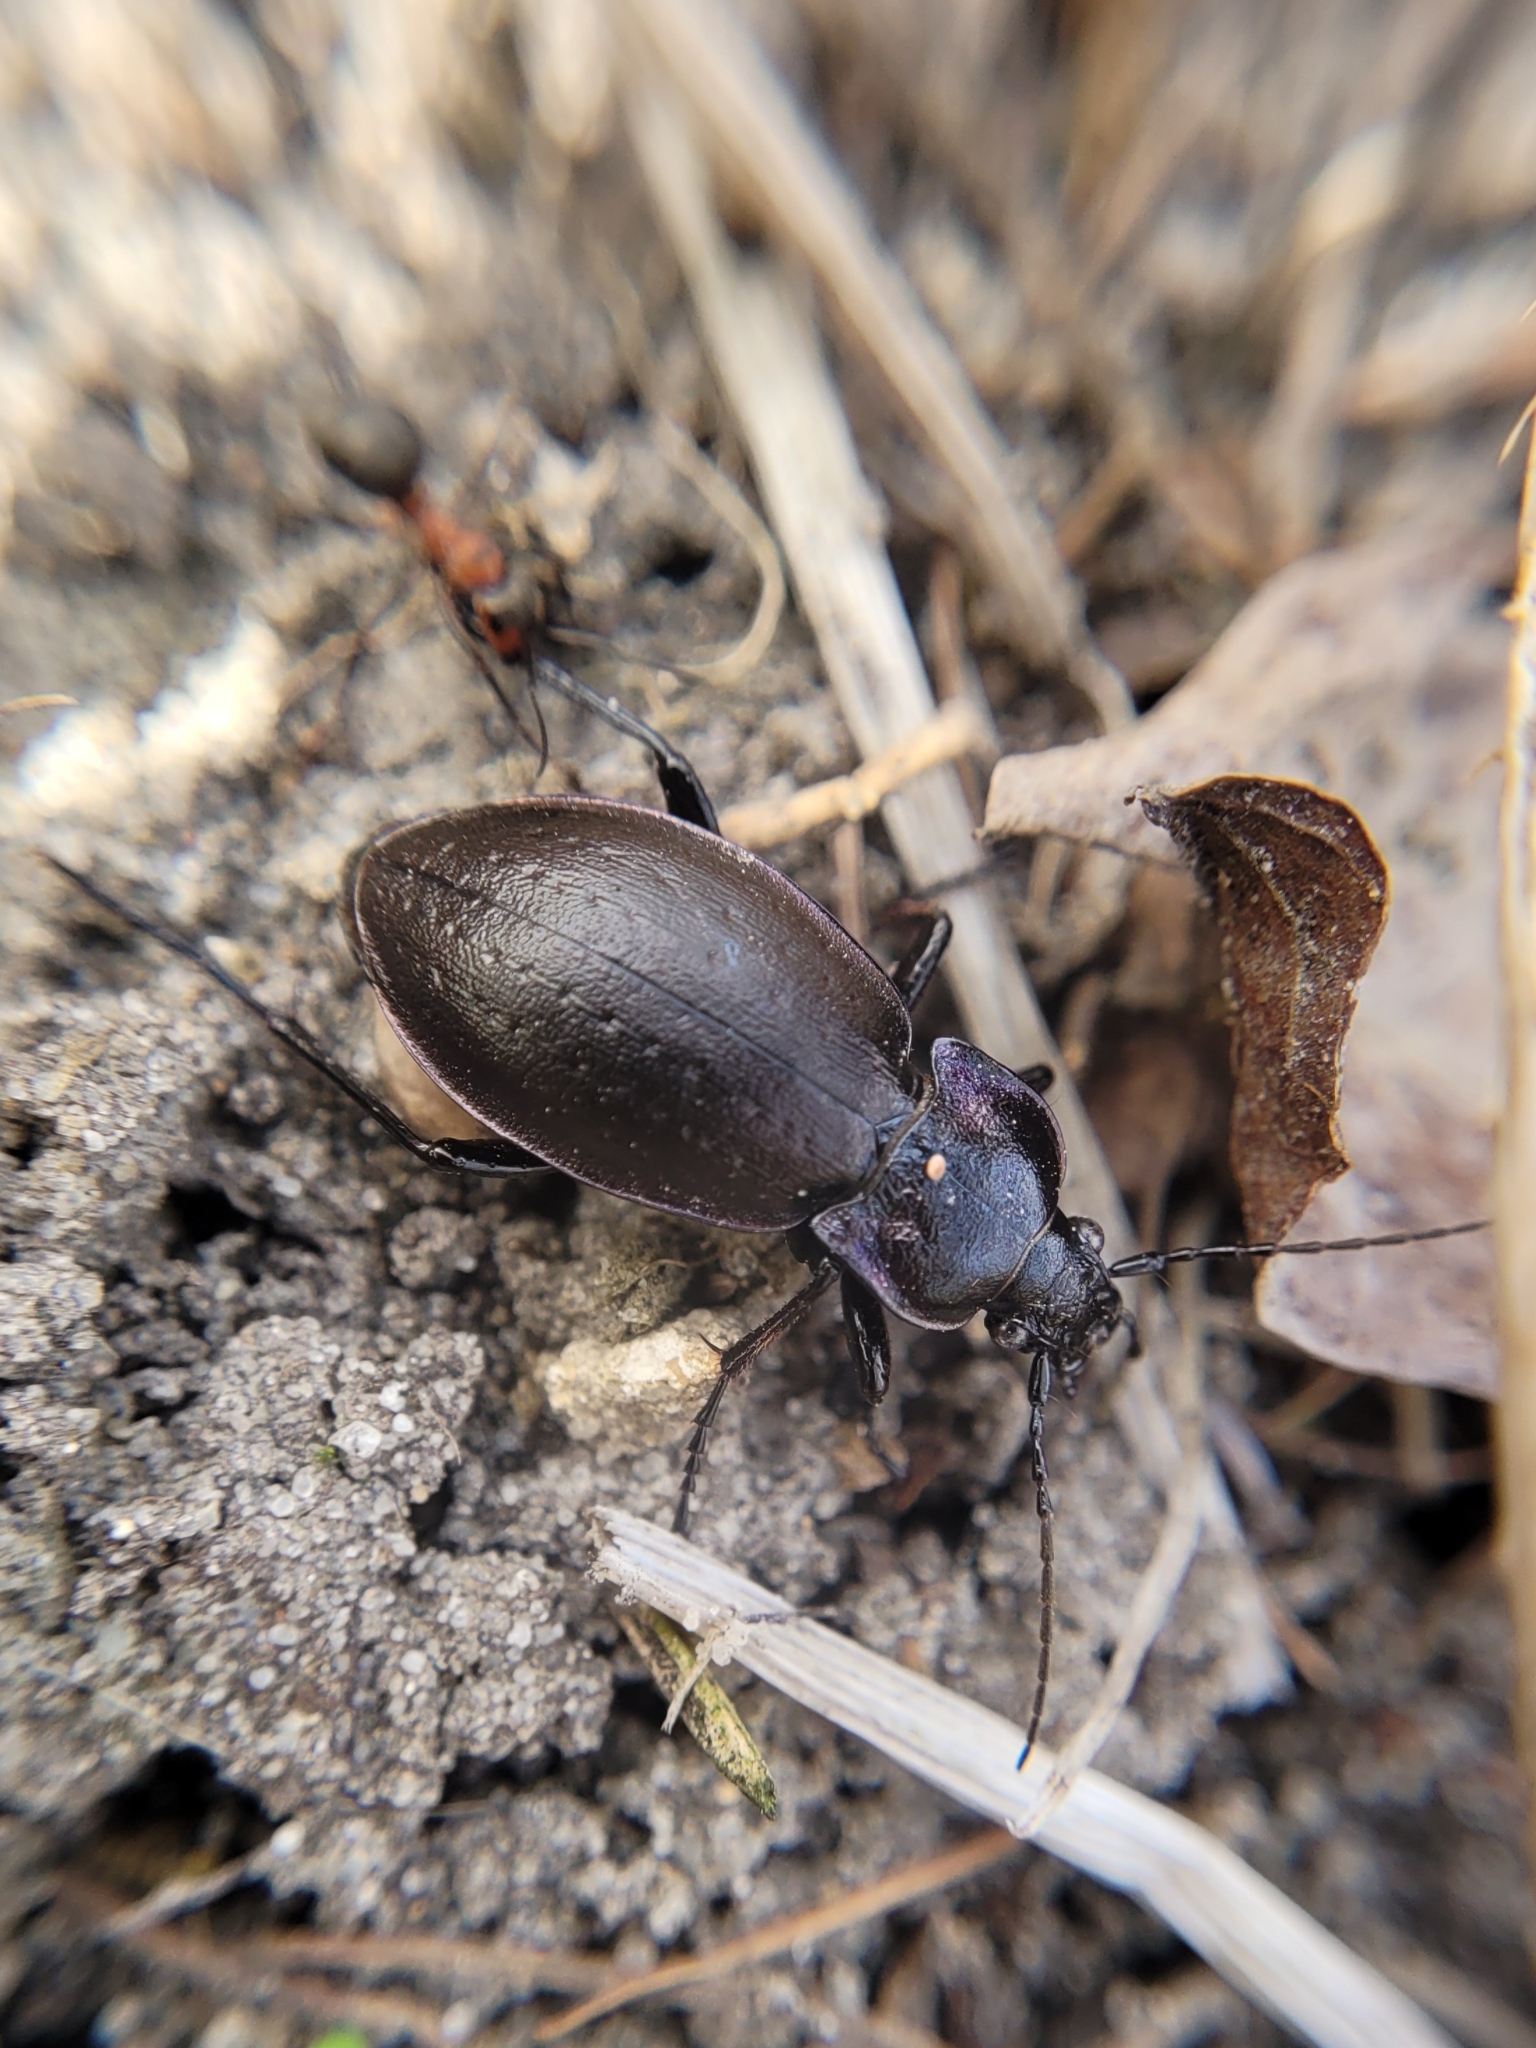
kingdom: Animalia
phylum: Arthropoda
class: Insecta
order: Coleoptera
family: Carabidae
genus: Carabus
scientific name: Carabus nemoralis
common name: European ground beetle
